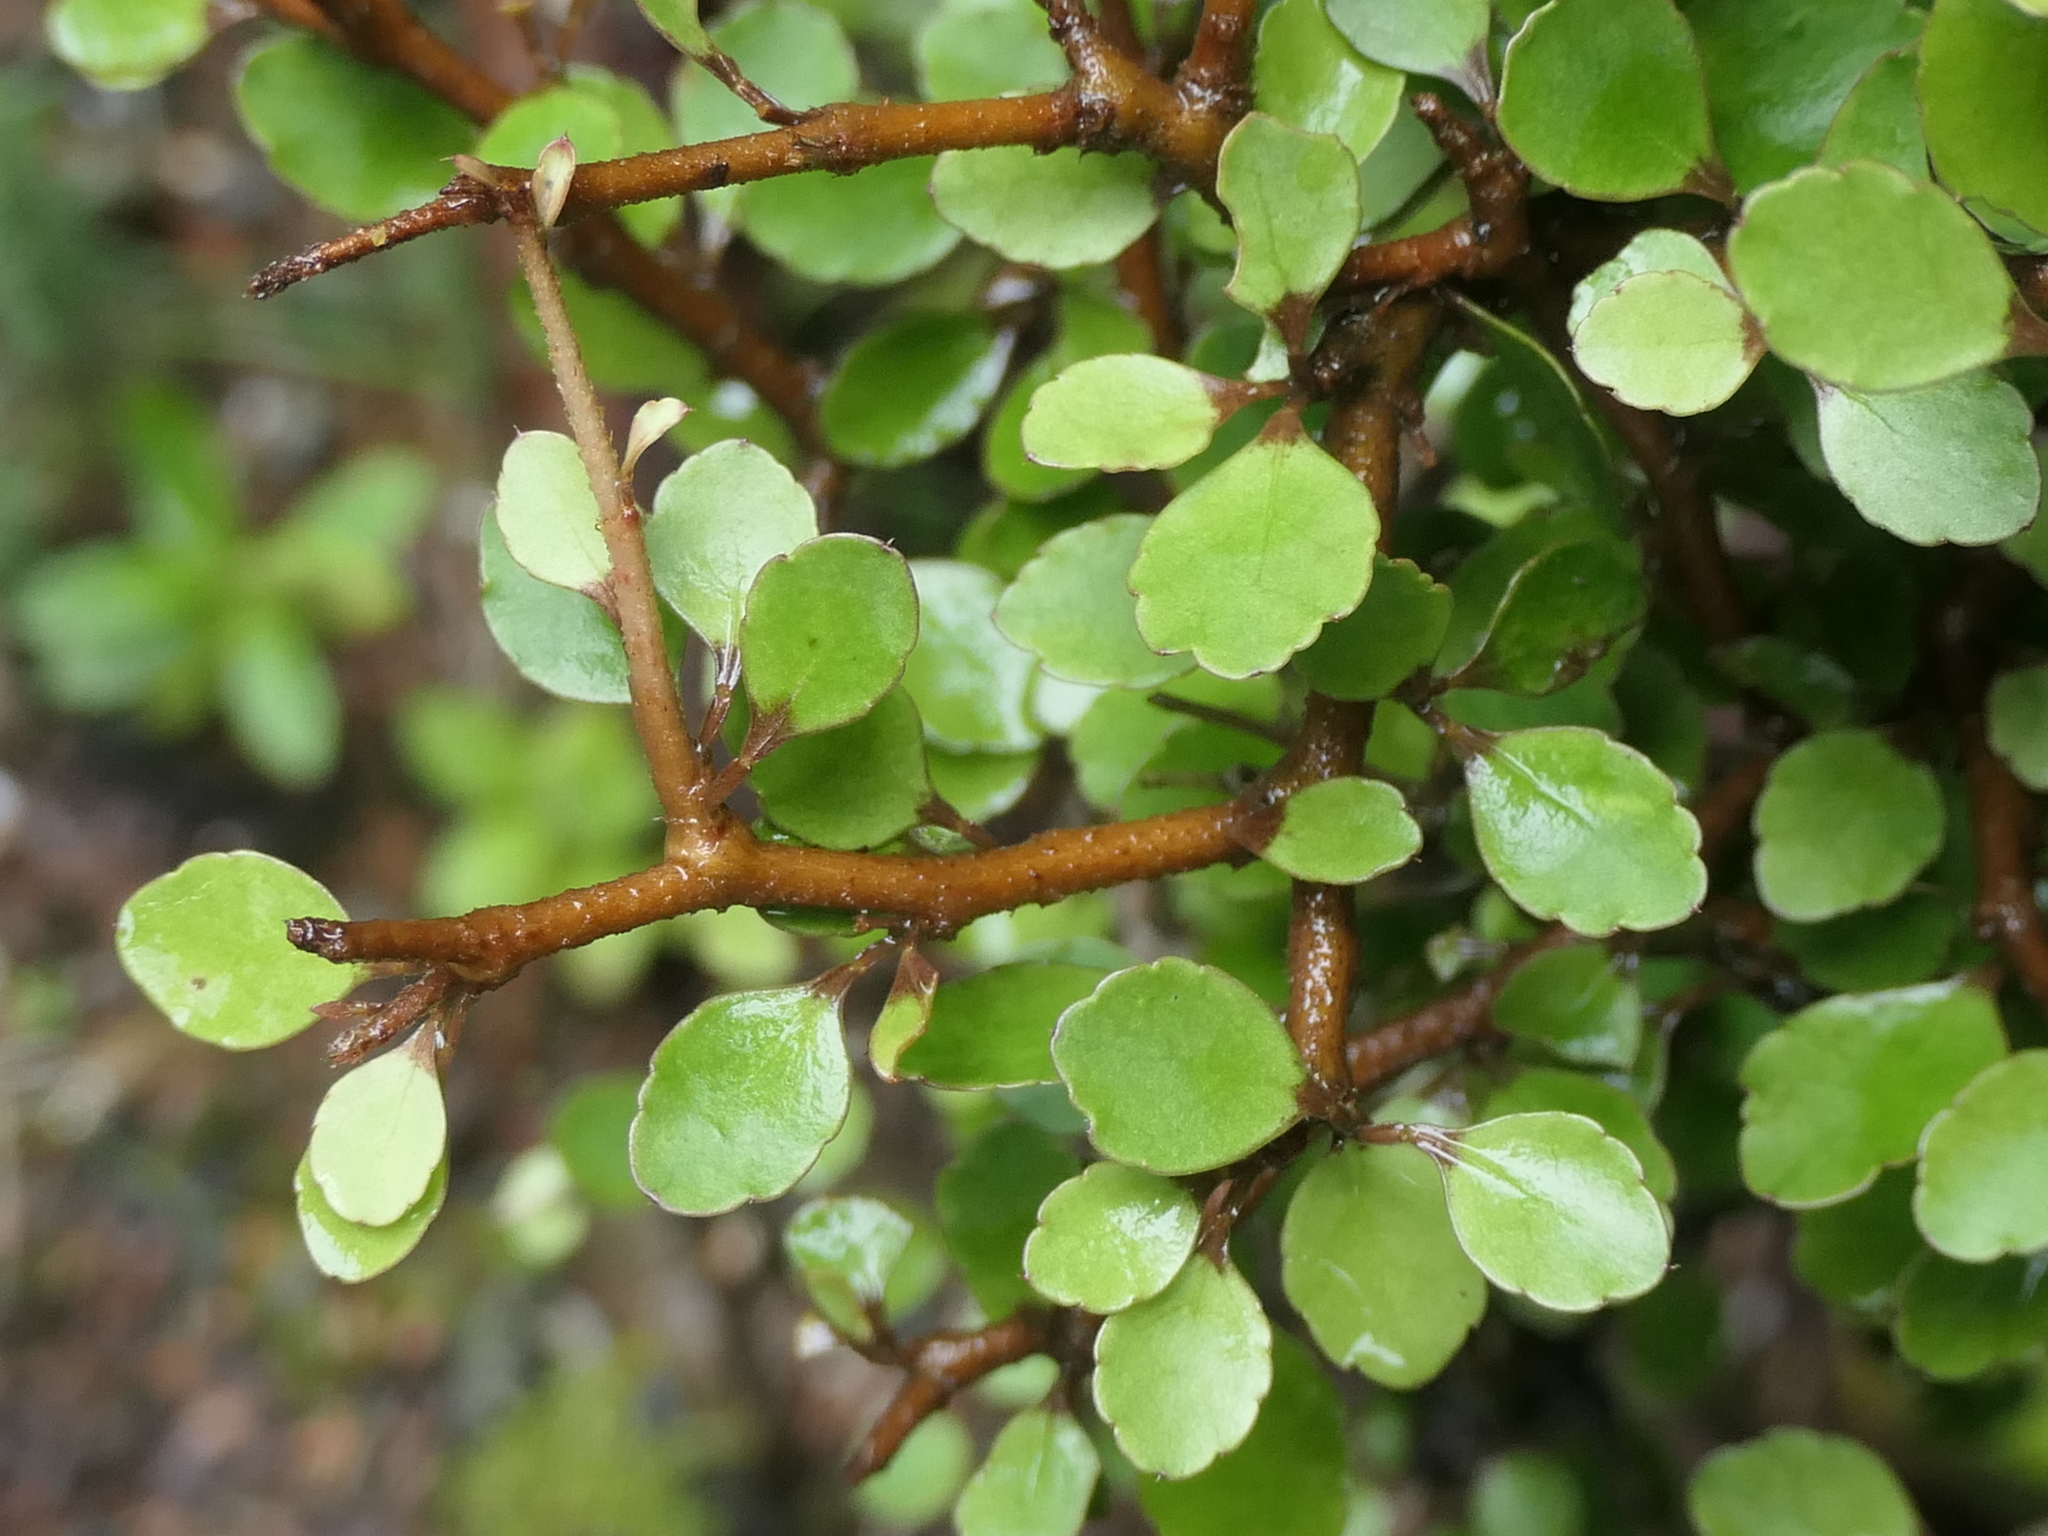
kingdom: Plantae
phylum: Tracheophyta
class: Magnoliopsida
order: Apiales
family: Araliaceae
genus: Raukaua
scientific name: Raukaua anomalus
